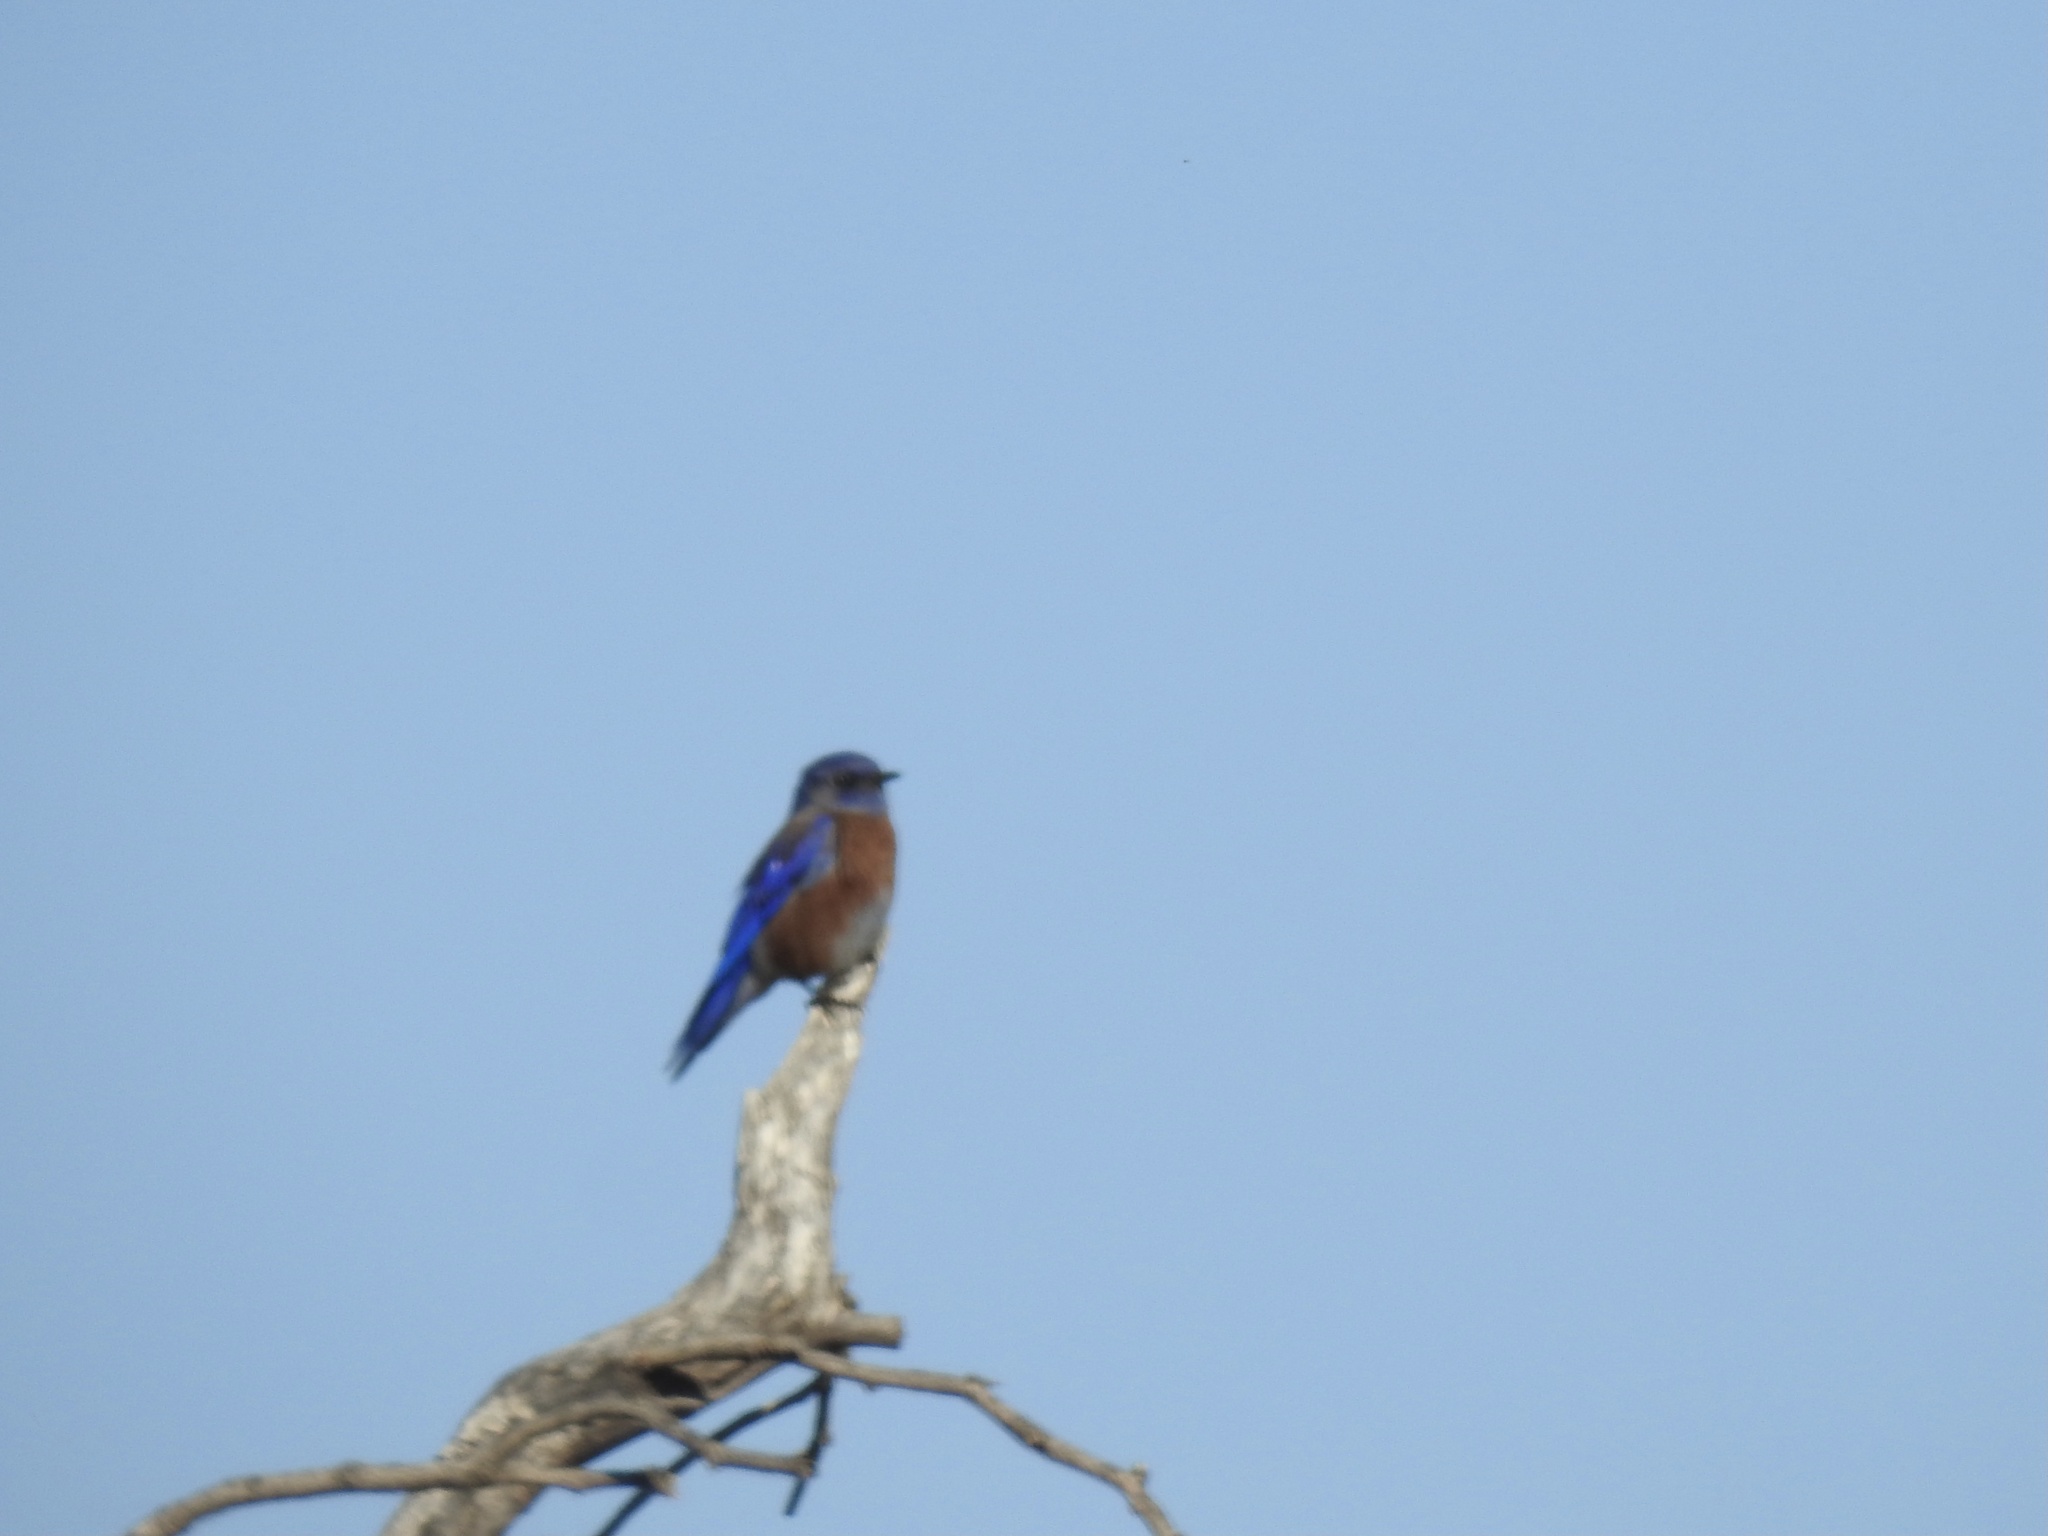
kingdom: Animalia
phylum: Chordata
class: Aves
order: Passeriformes
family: Turdidae
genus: Sialia
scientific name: Sialia mexicana
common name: Western bluebird
